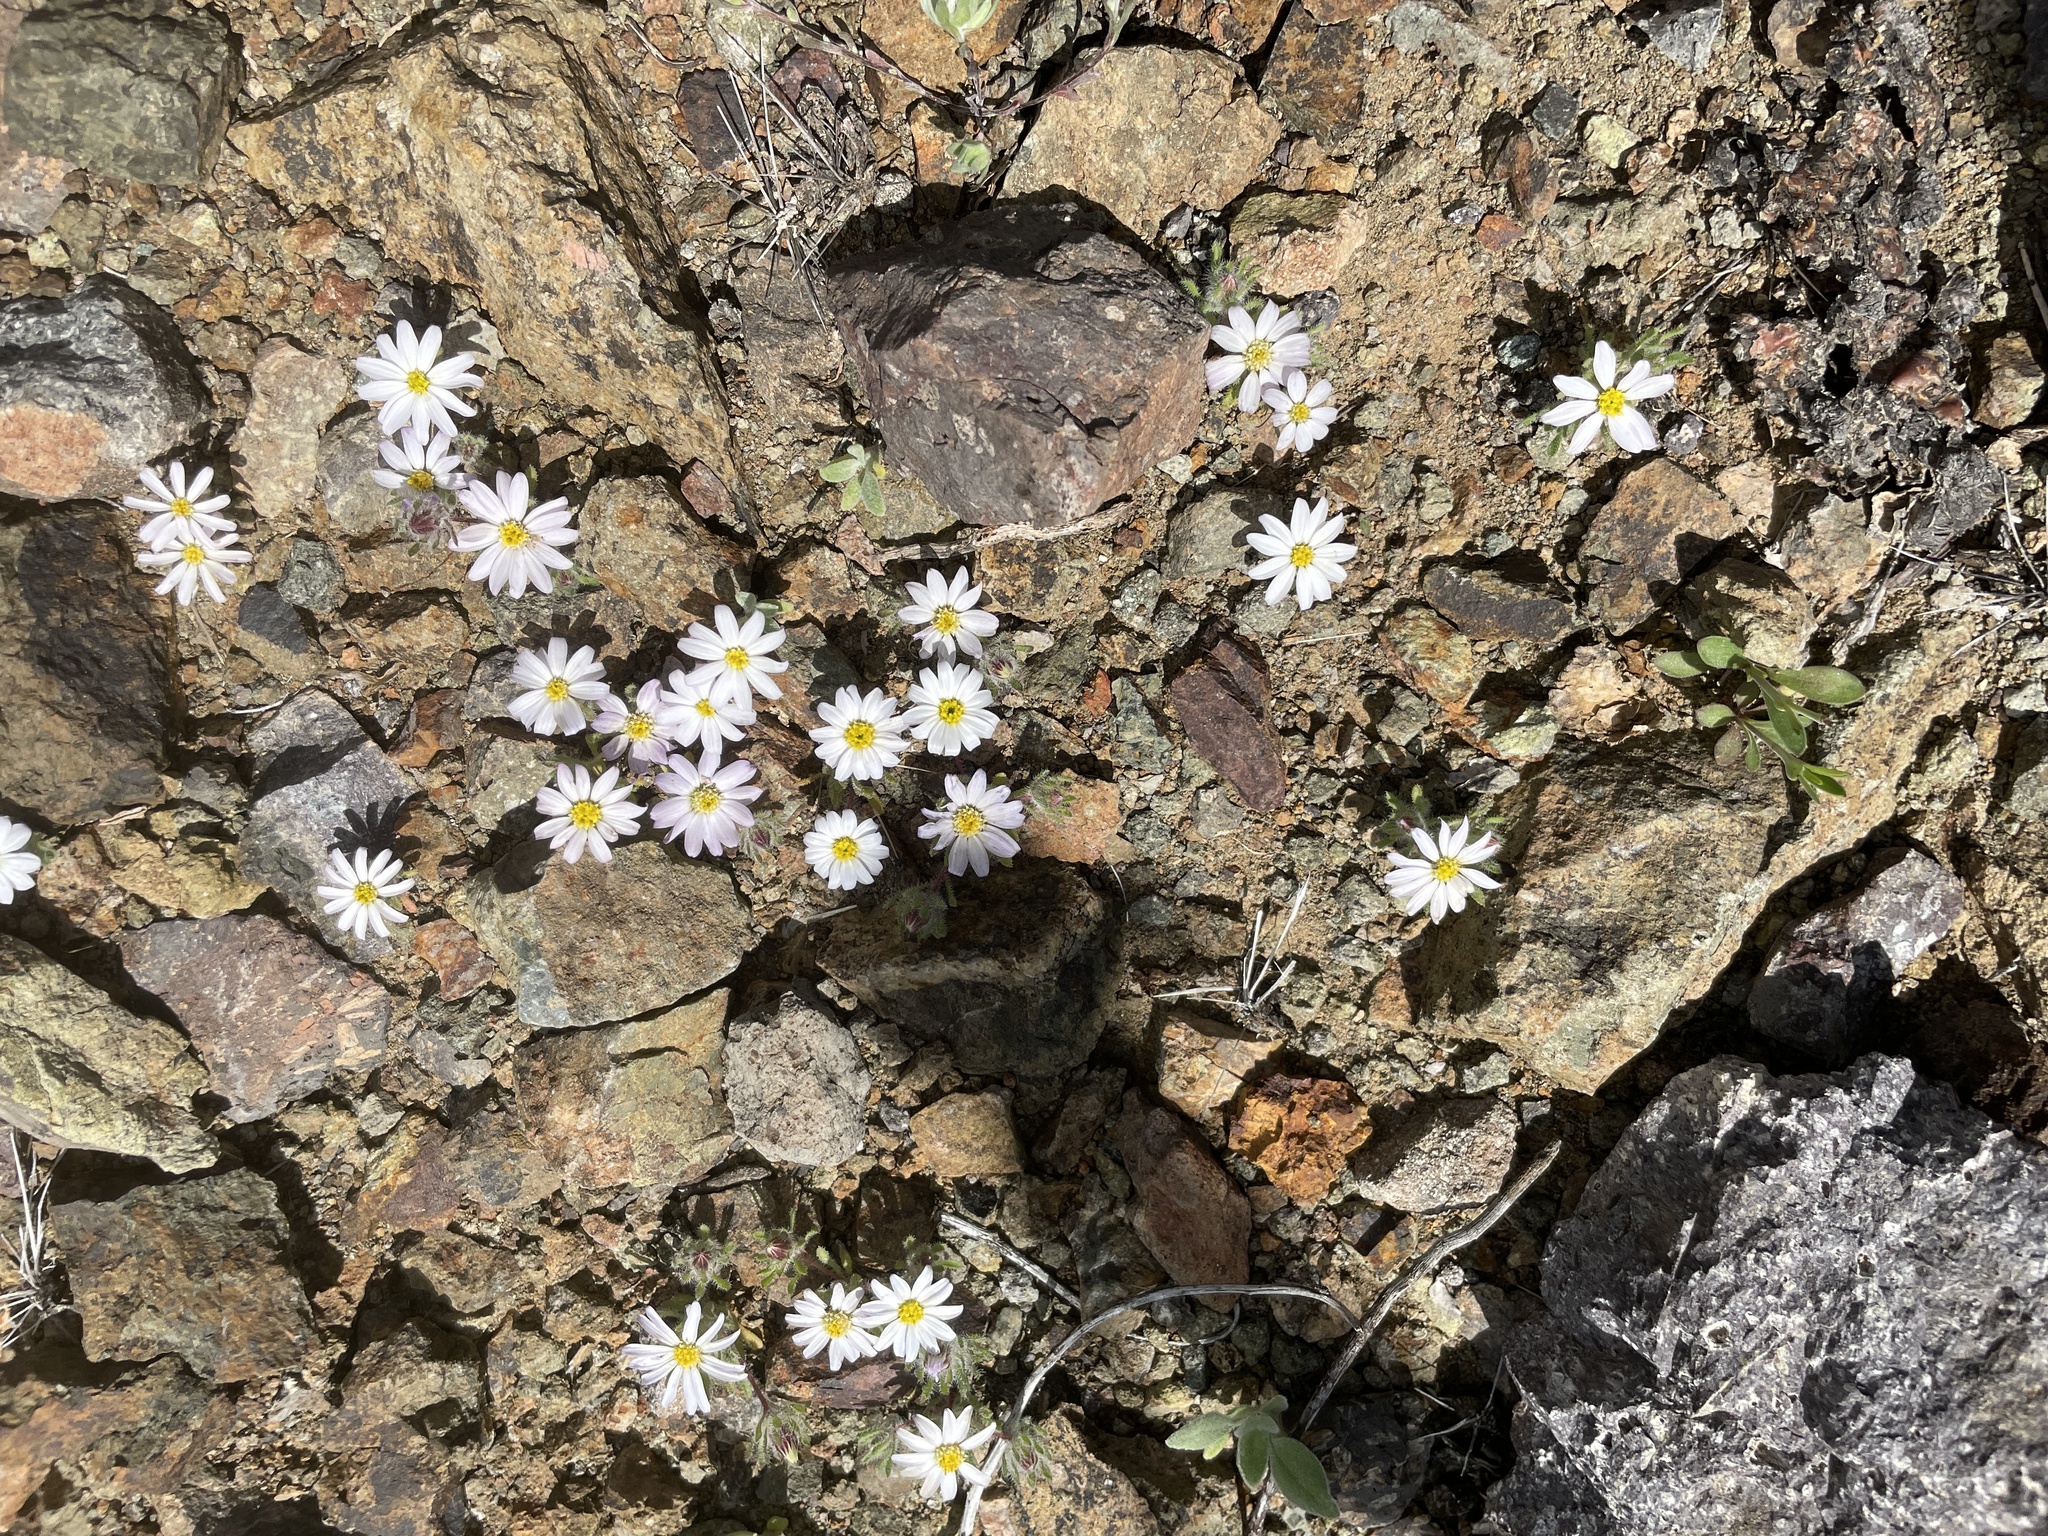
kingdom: Plantae
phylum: Tracheophyta
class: Magnoliopsida
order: Asterales
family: Asteraceae
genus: Monoptilon
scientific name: Monoptilon bellioides
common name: Bristly desertstar
